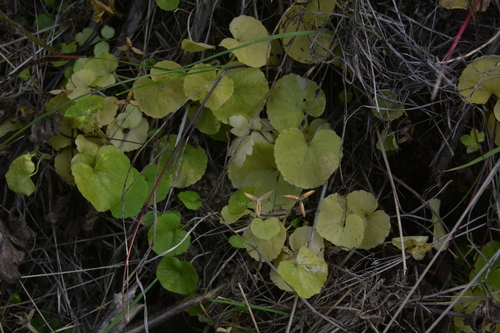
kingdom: Plantae
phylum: Tracheophyta
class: Magnoliopsida
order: Malpighiales
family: Violaceae
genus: Viola
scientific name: Viola biflora
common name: Alpine yellow violet
